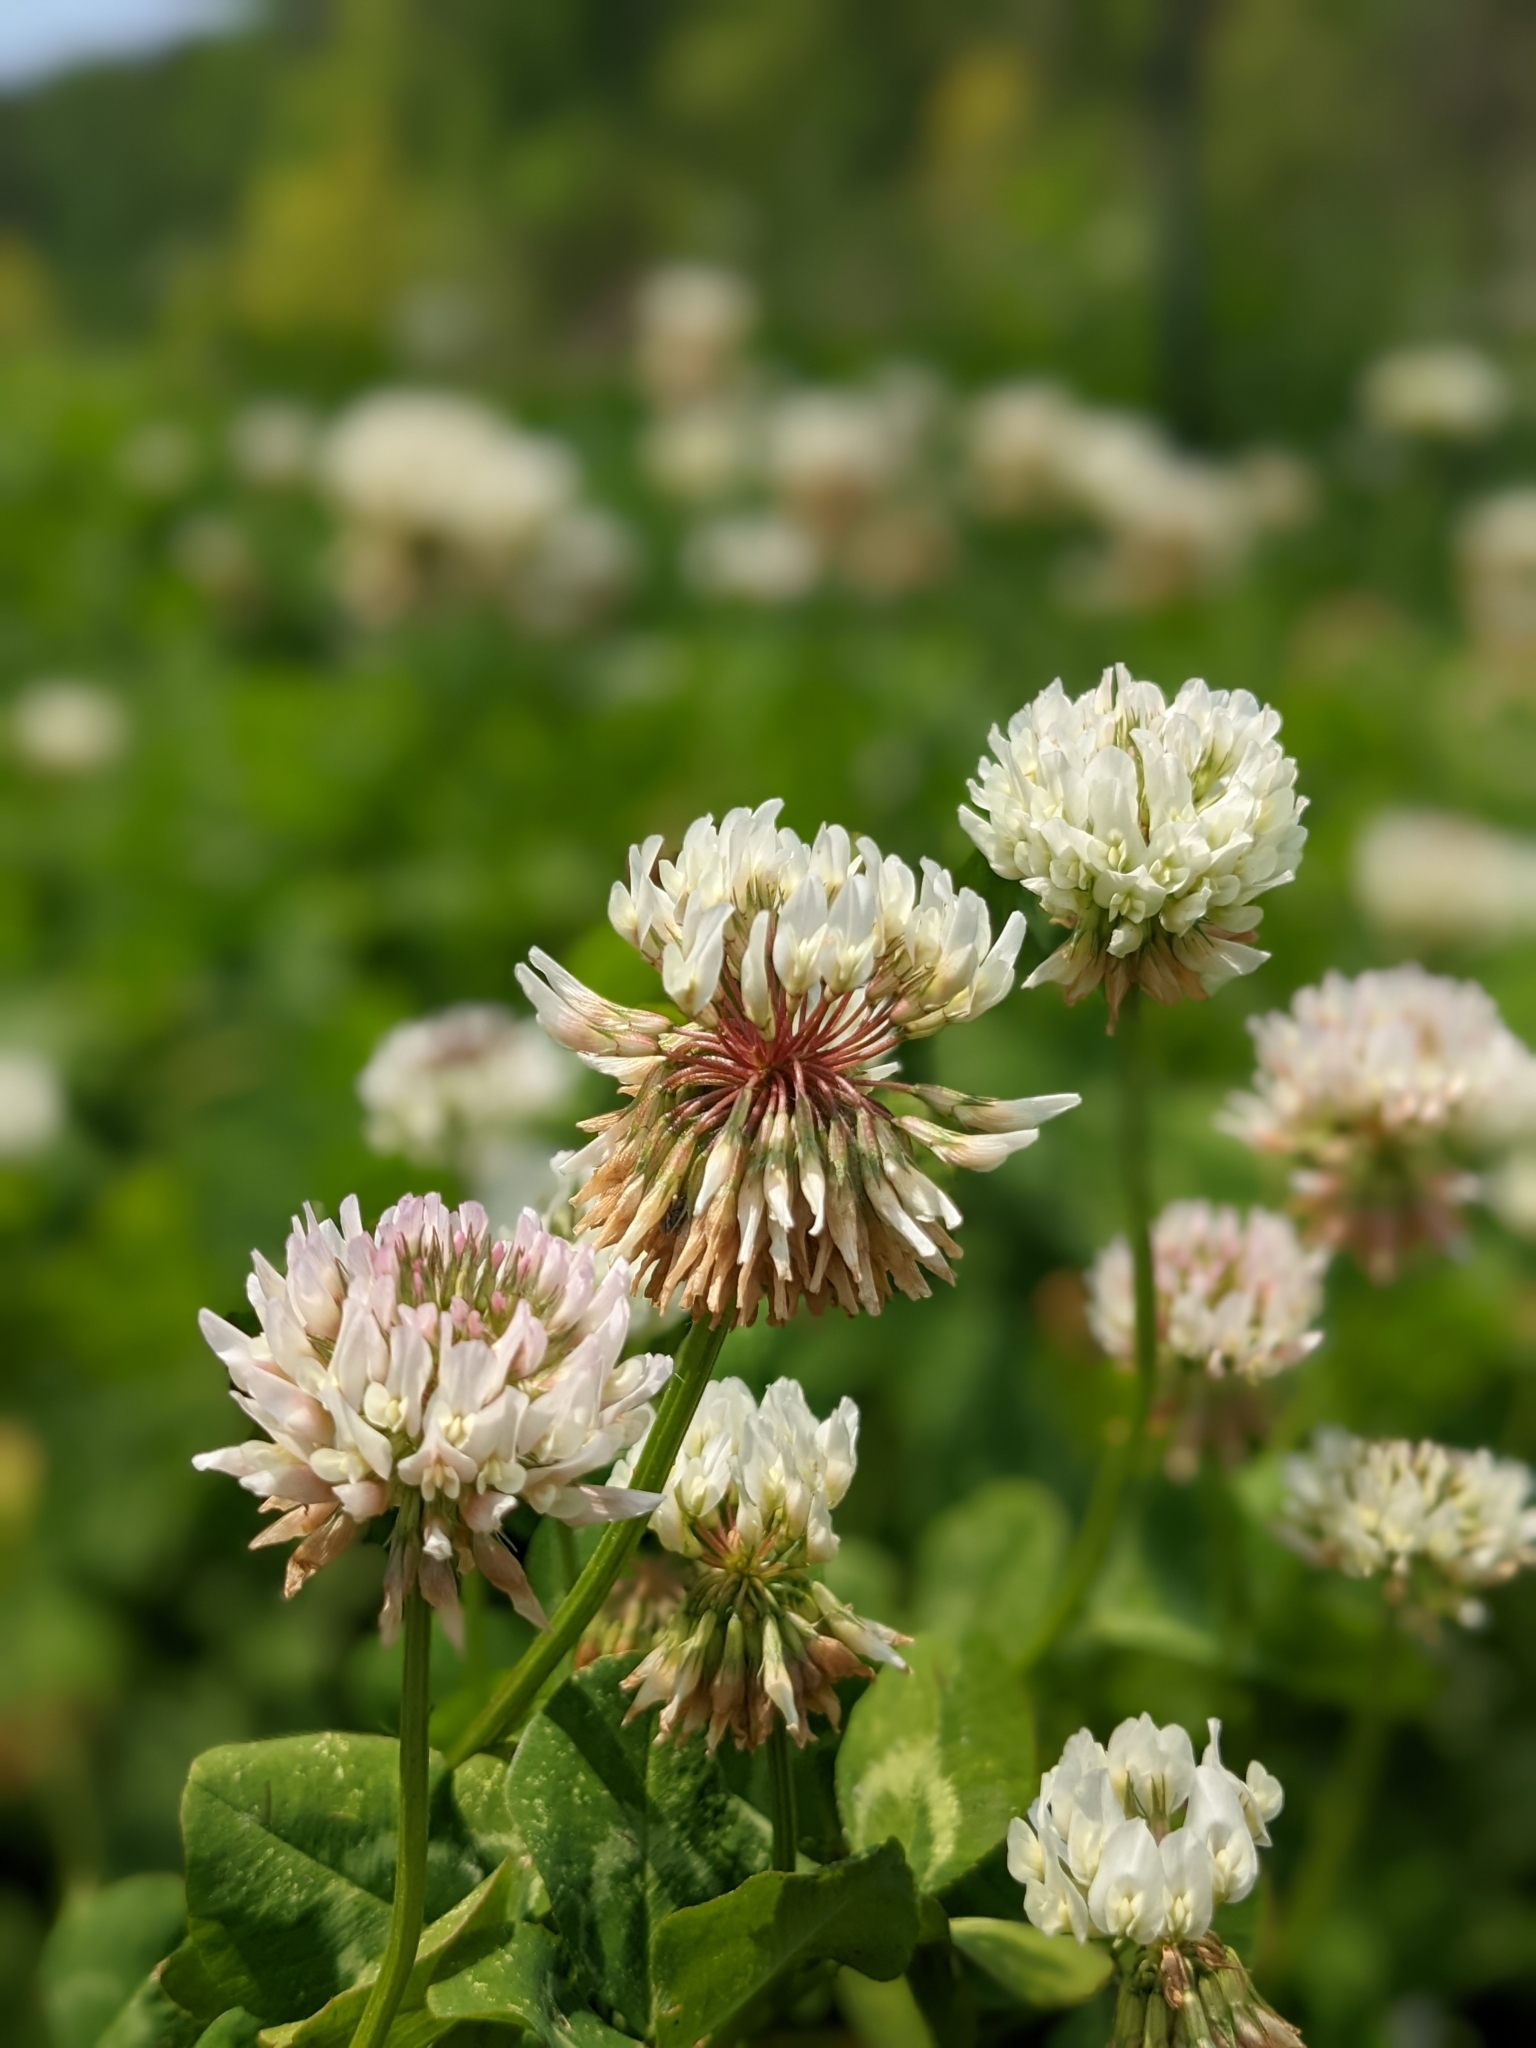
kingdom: Plantae
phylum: Tracheophyta
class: Magnoliopsida
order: Fabales
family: Fabaceae
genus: Trifolium
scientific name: Trifolium repens
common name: White clover
